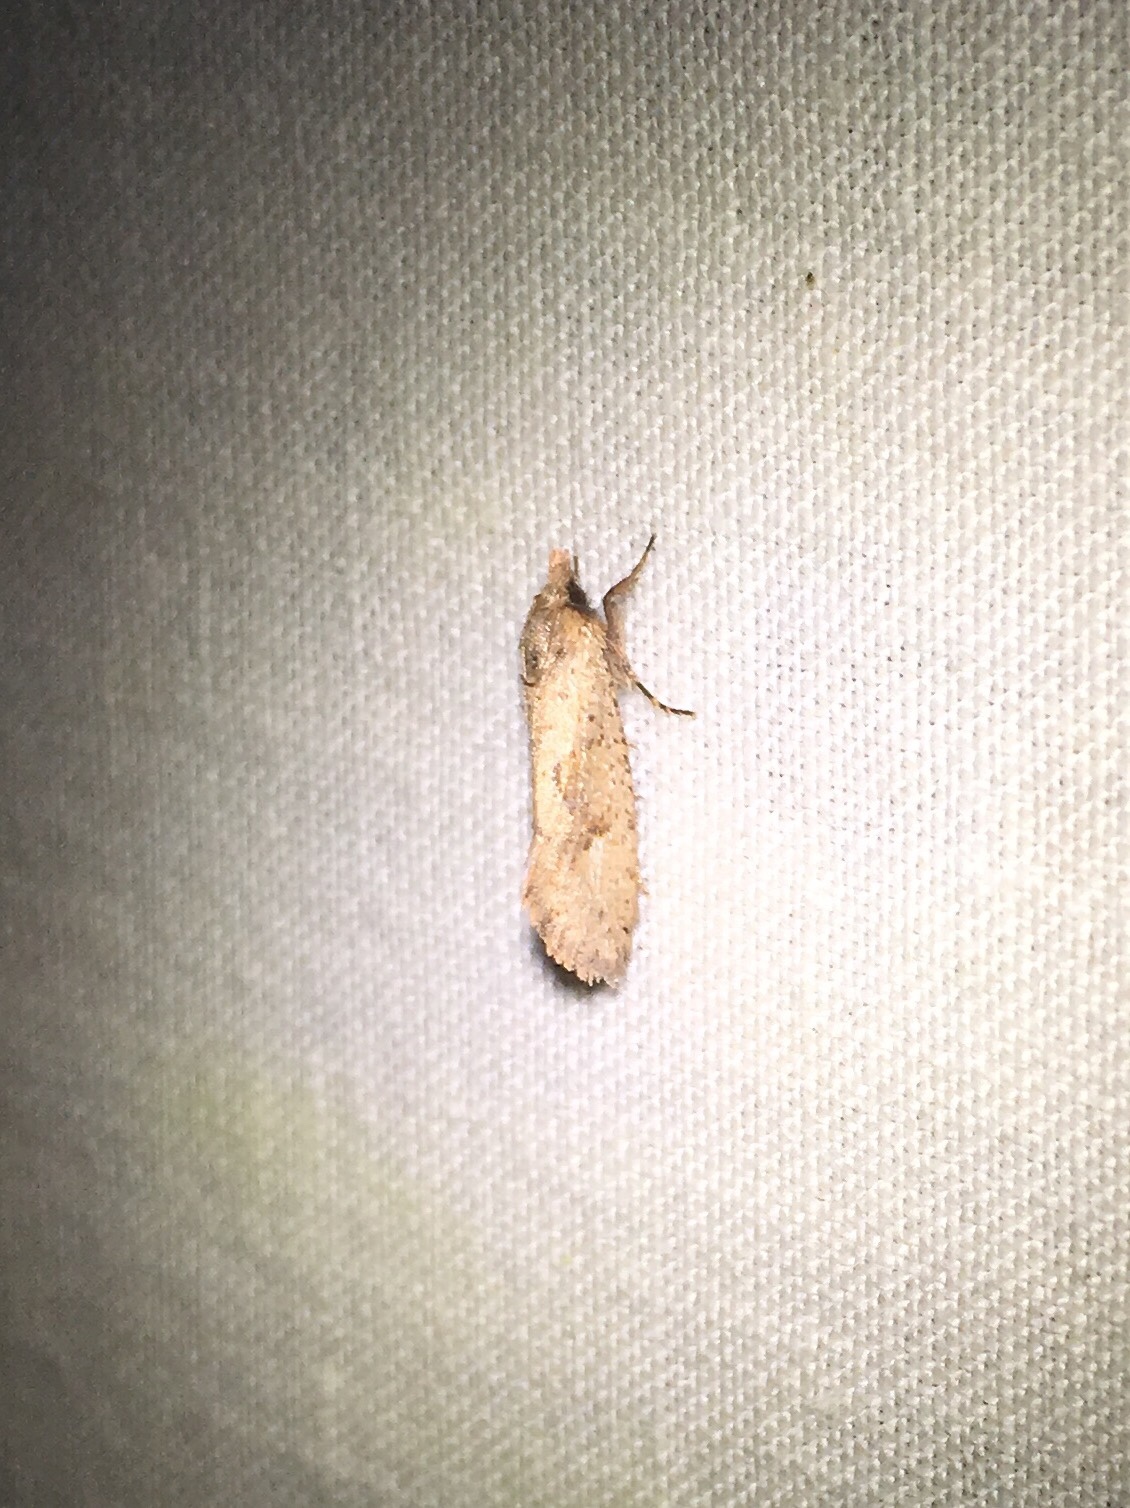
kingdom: Animalia
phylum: Arthropoda
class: Insecta
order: Lepidoptera
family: Tineidae
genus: Acrolophus
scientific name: Acrolophus walsinghami
